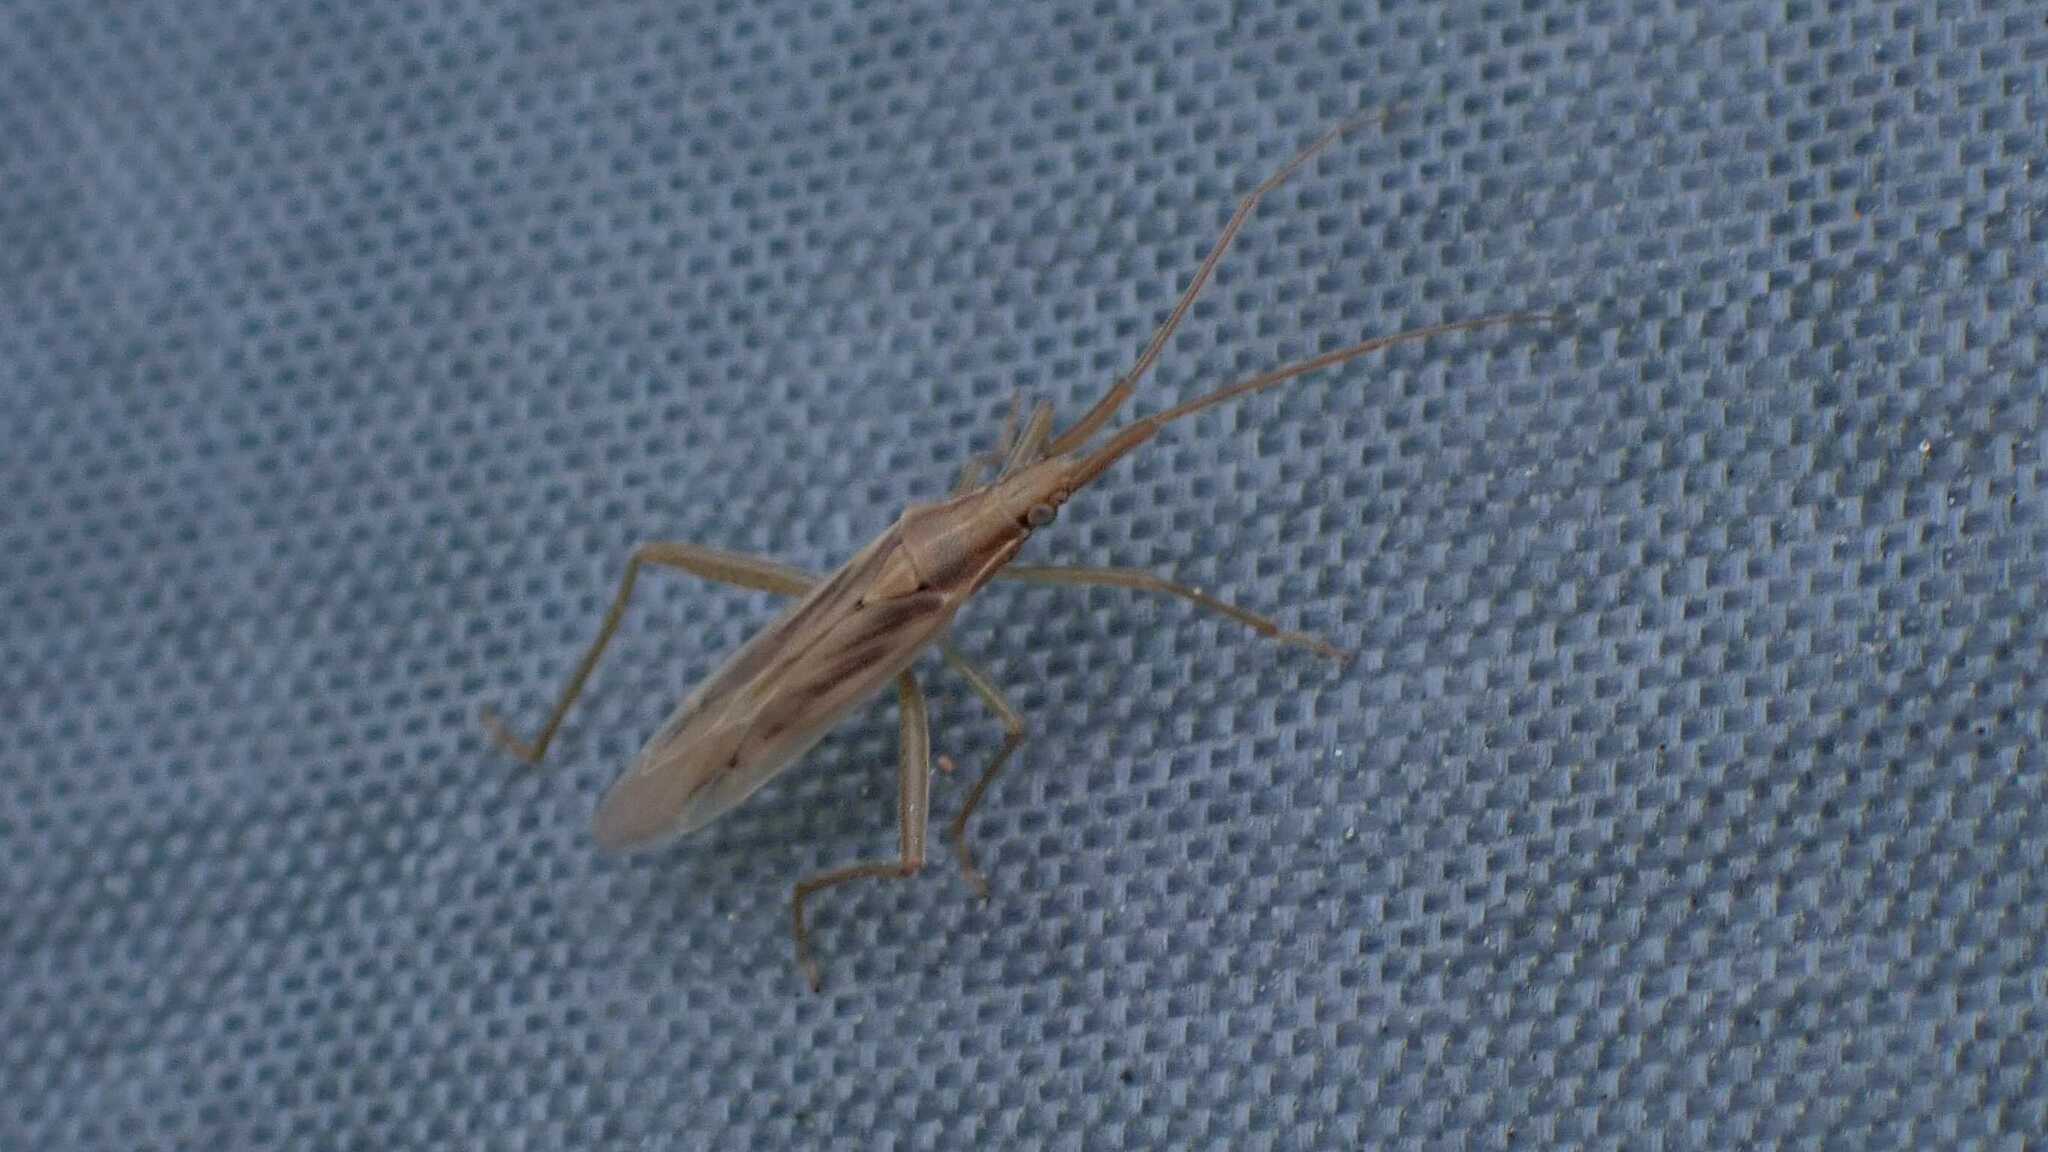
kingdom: Animalia
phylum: Arthropoda
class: Insecta
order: Hemiptera
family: Miridae
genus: Stenodema
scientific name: Stenodema laevigata
